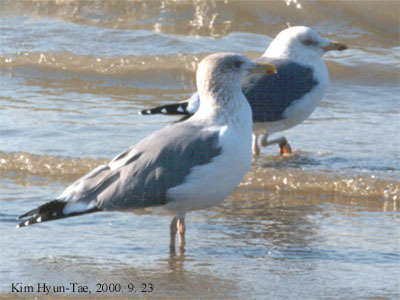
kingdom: Animalia
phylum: Chordata
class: Aves
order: Charadriiformes
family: Laridae
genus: Larus
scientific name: Larus fuscus
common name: Lesser black-backed gull
